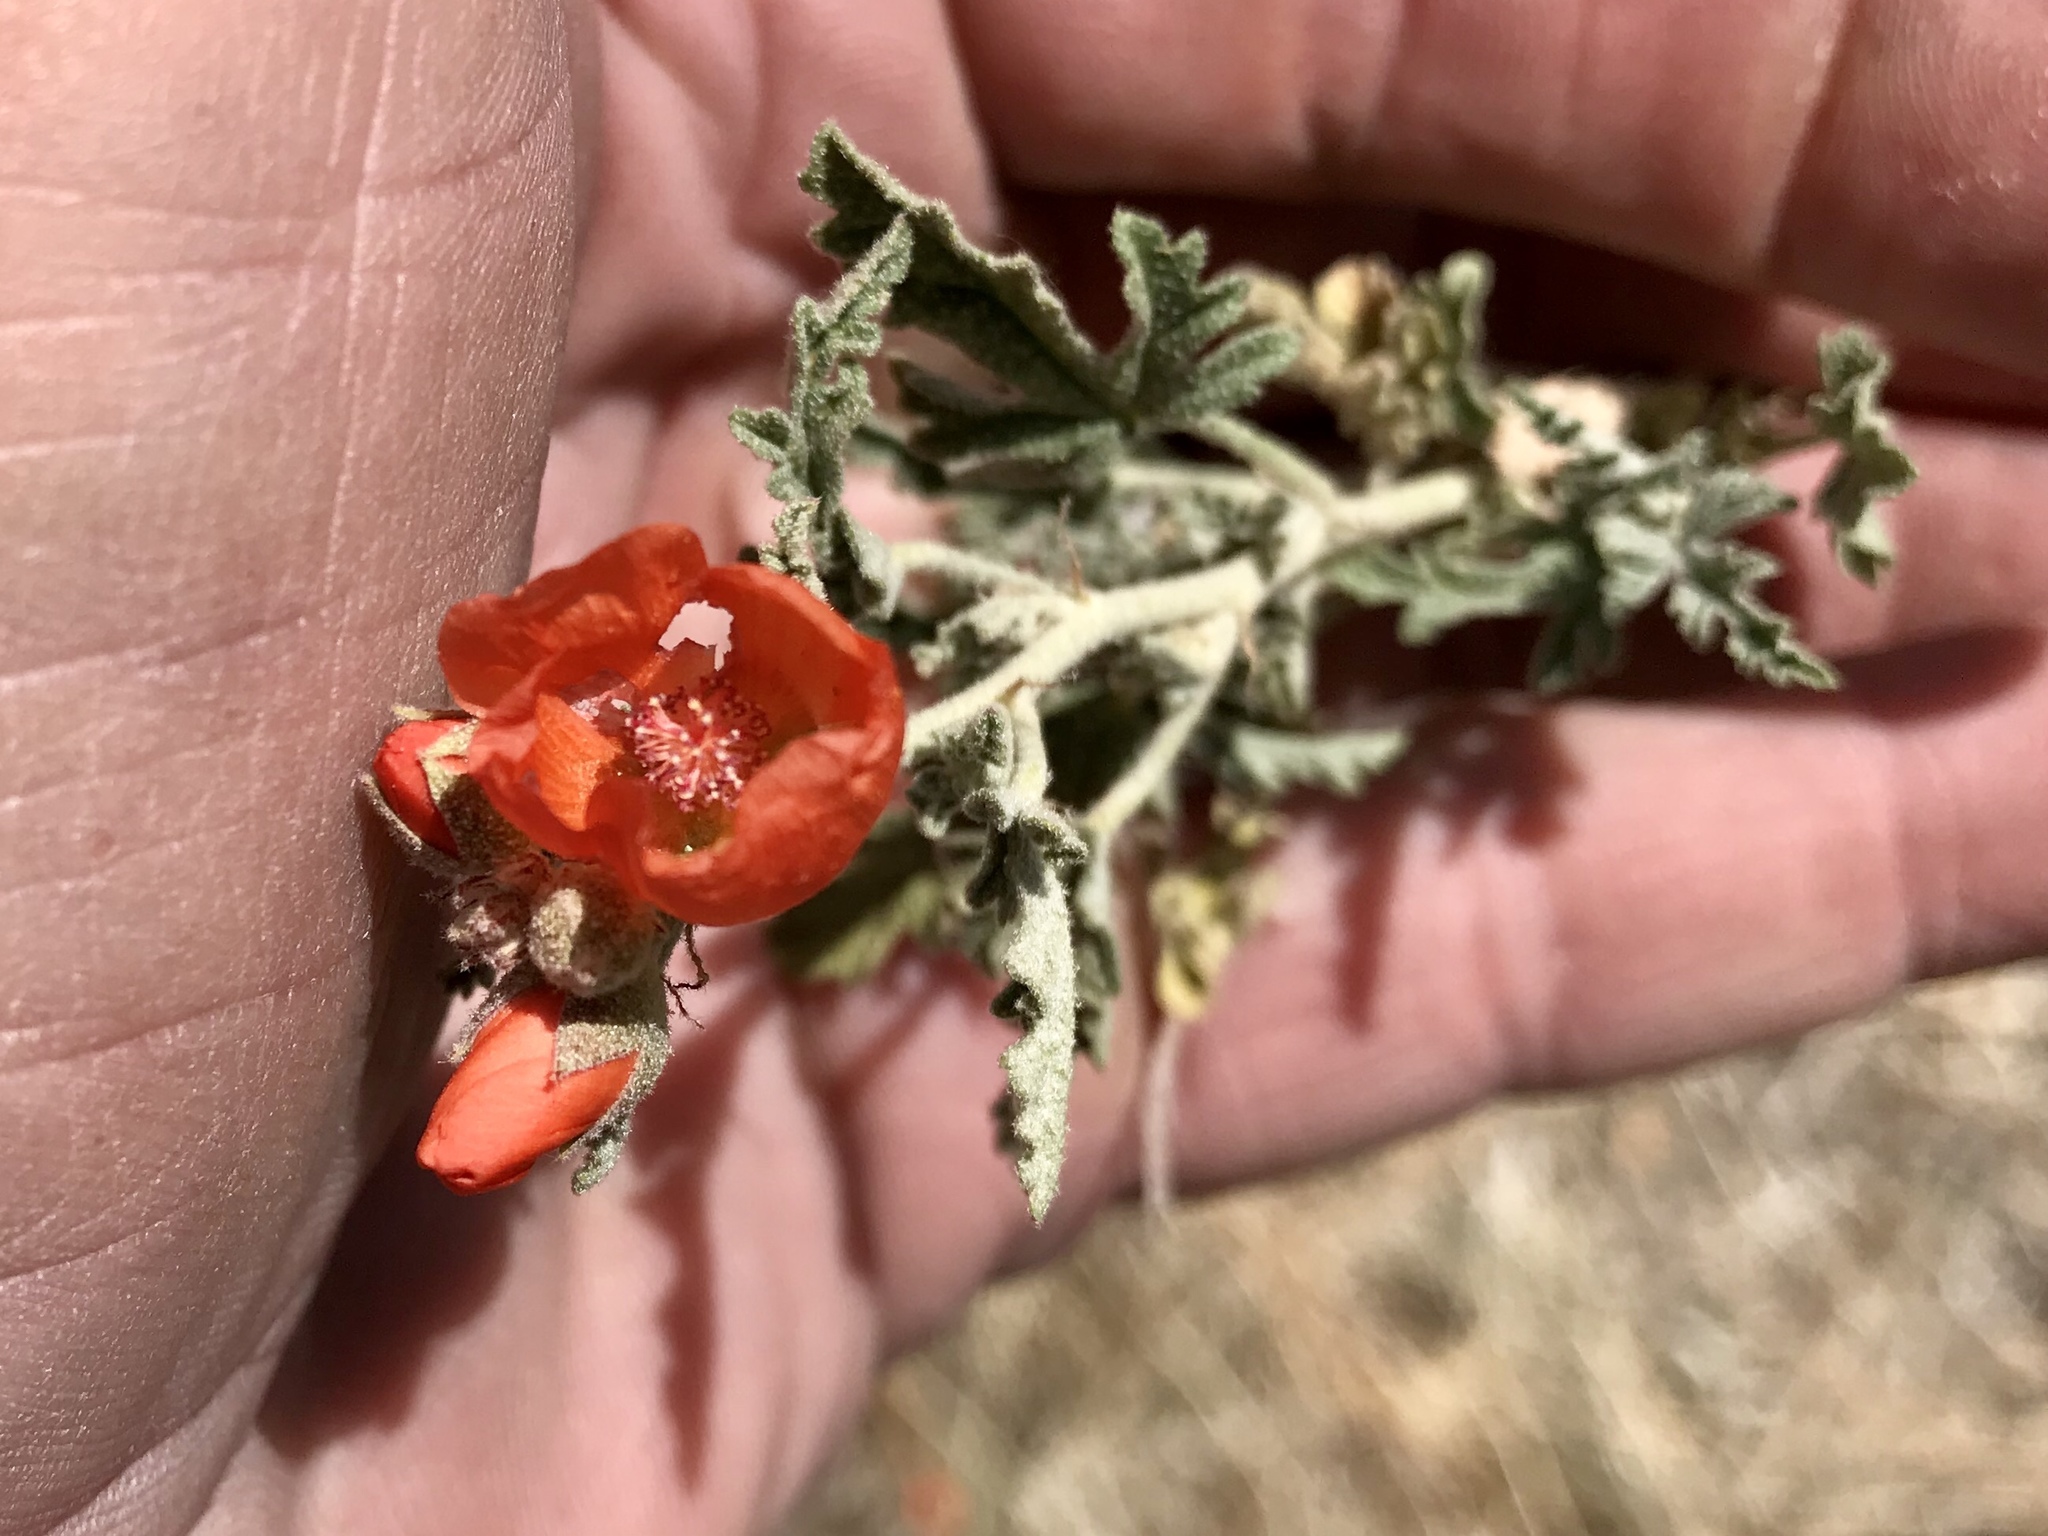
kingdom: Plantae
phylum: Tracheophyta
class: Magnoliopsida
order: Malvales
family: Malvaceae
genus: Sphaeralcea
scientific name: Sphaeralcea coccinea
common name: Moss-rose
